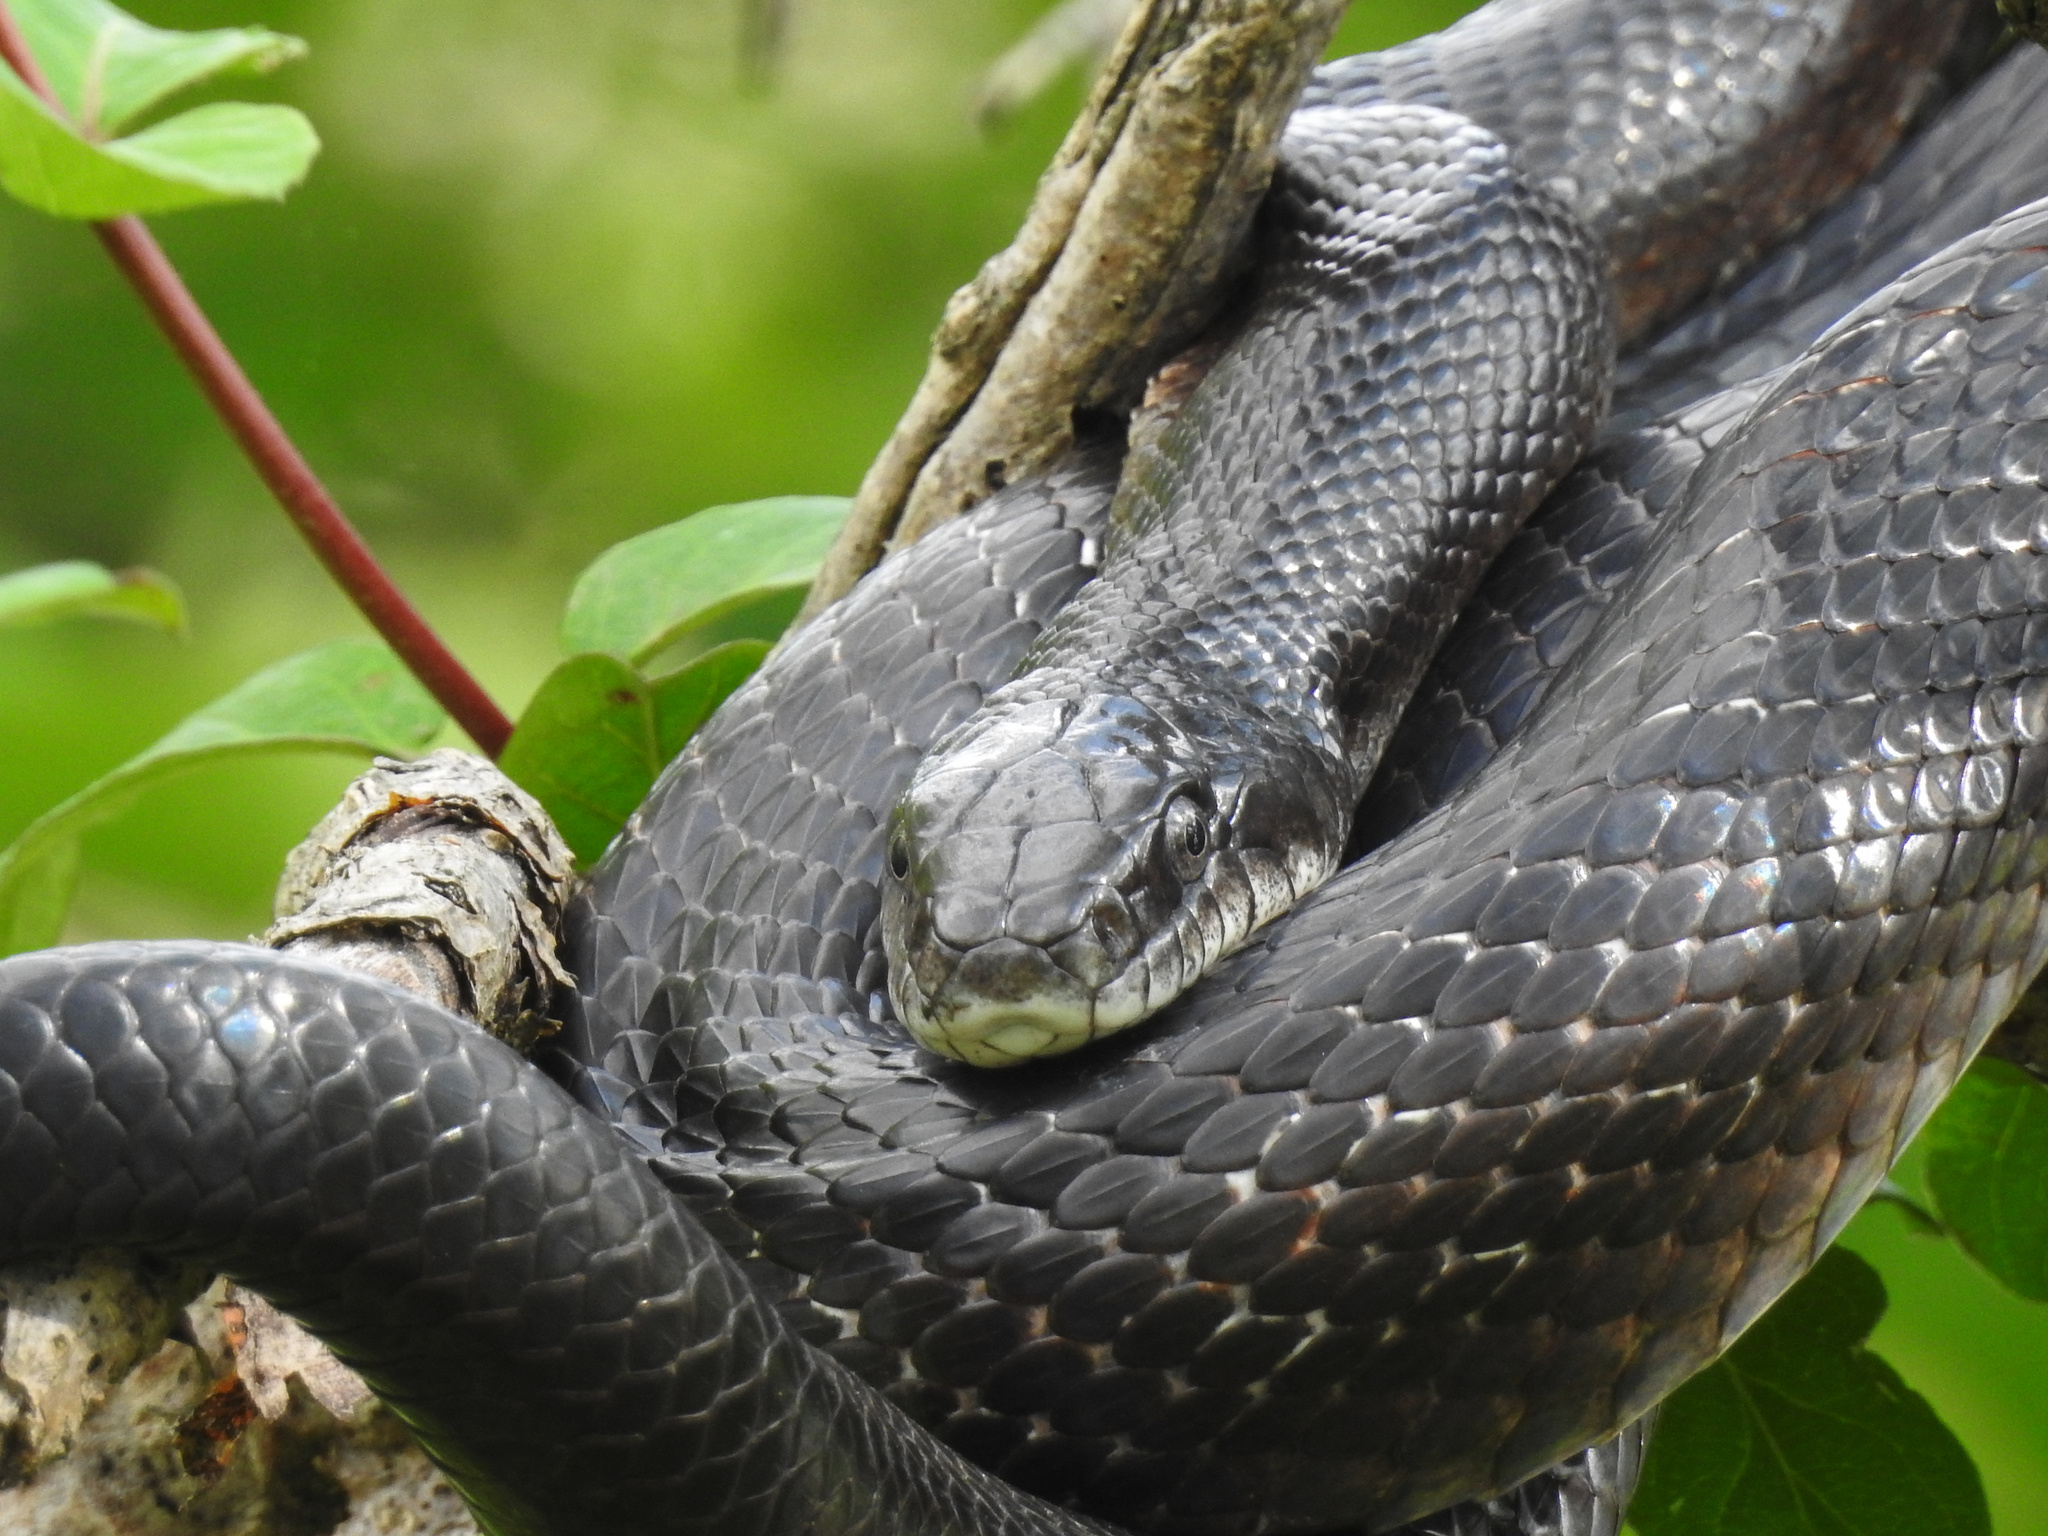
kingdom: Animalia
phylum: Chordata
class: Squamata
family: Colubridae
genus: Pantherophis
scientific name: Pantherophis alleghaniensis
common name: Eastern rat snake
